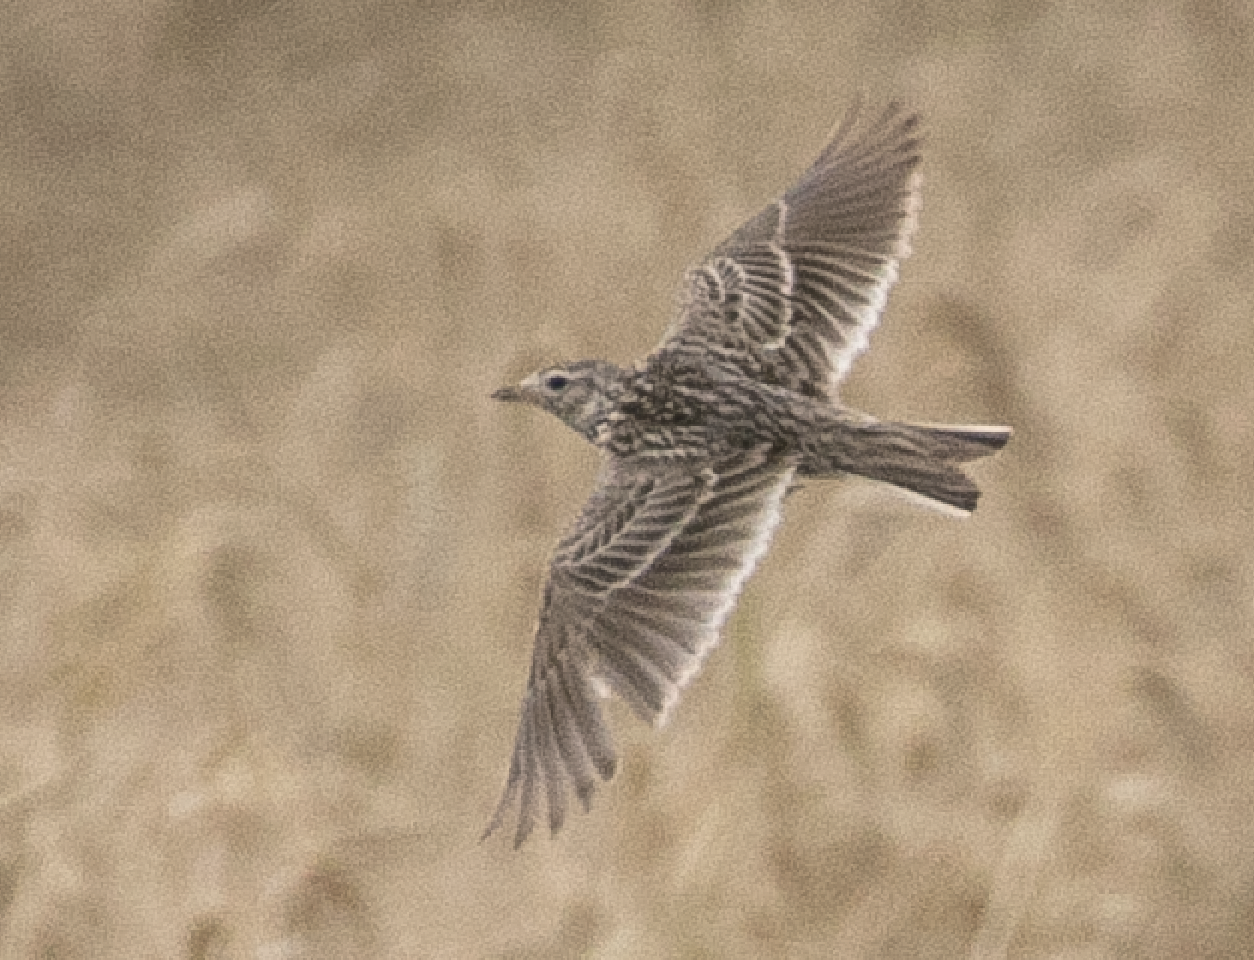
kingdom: Animalia
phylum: Chordata
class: Aves
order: Passeriformes
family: Alaudidae
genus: Alauda
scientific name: Alauda arvensis
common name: Eurasian skylark
